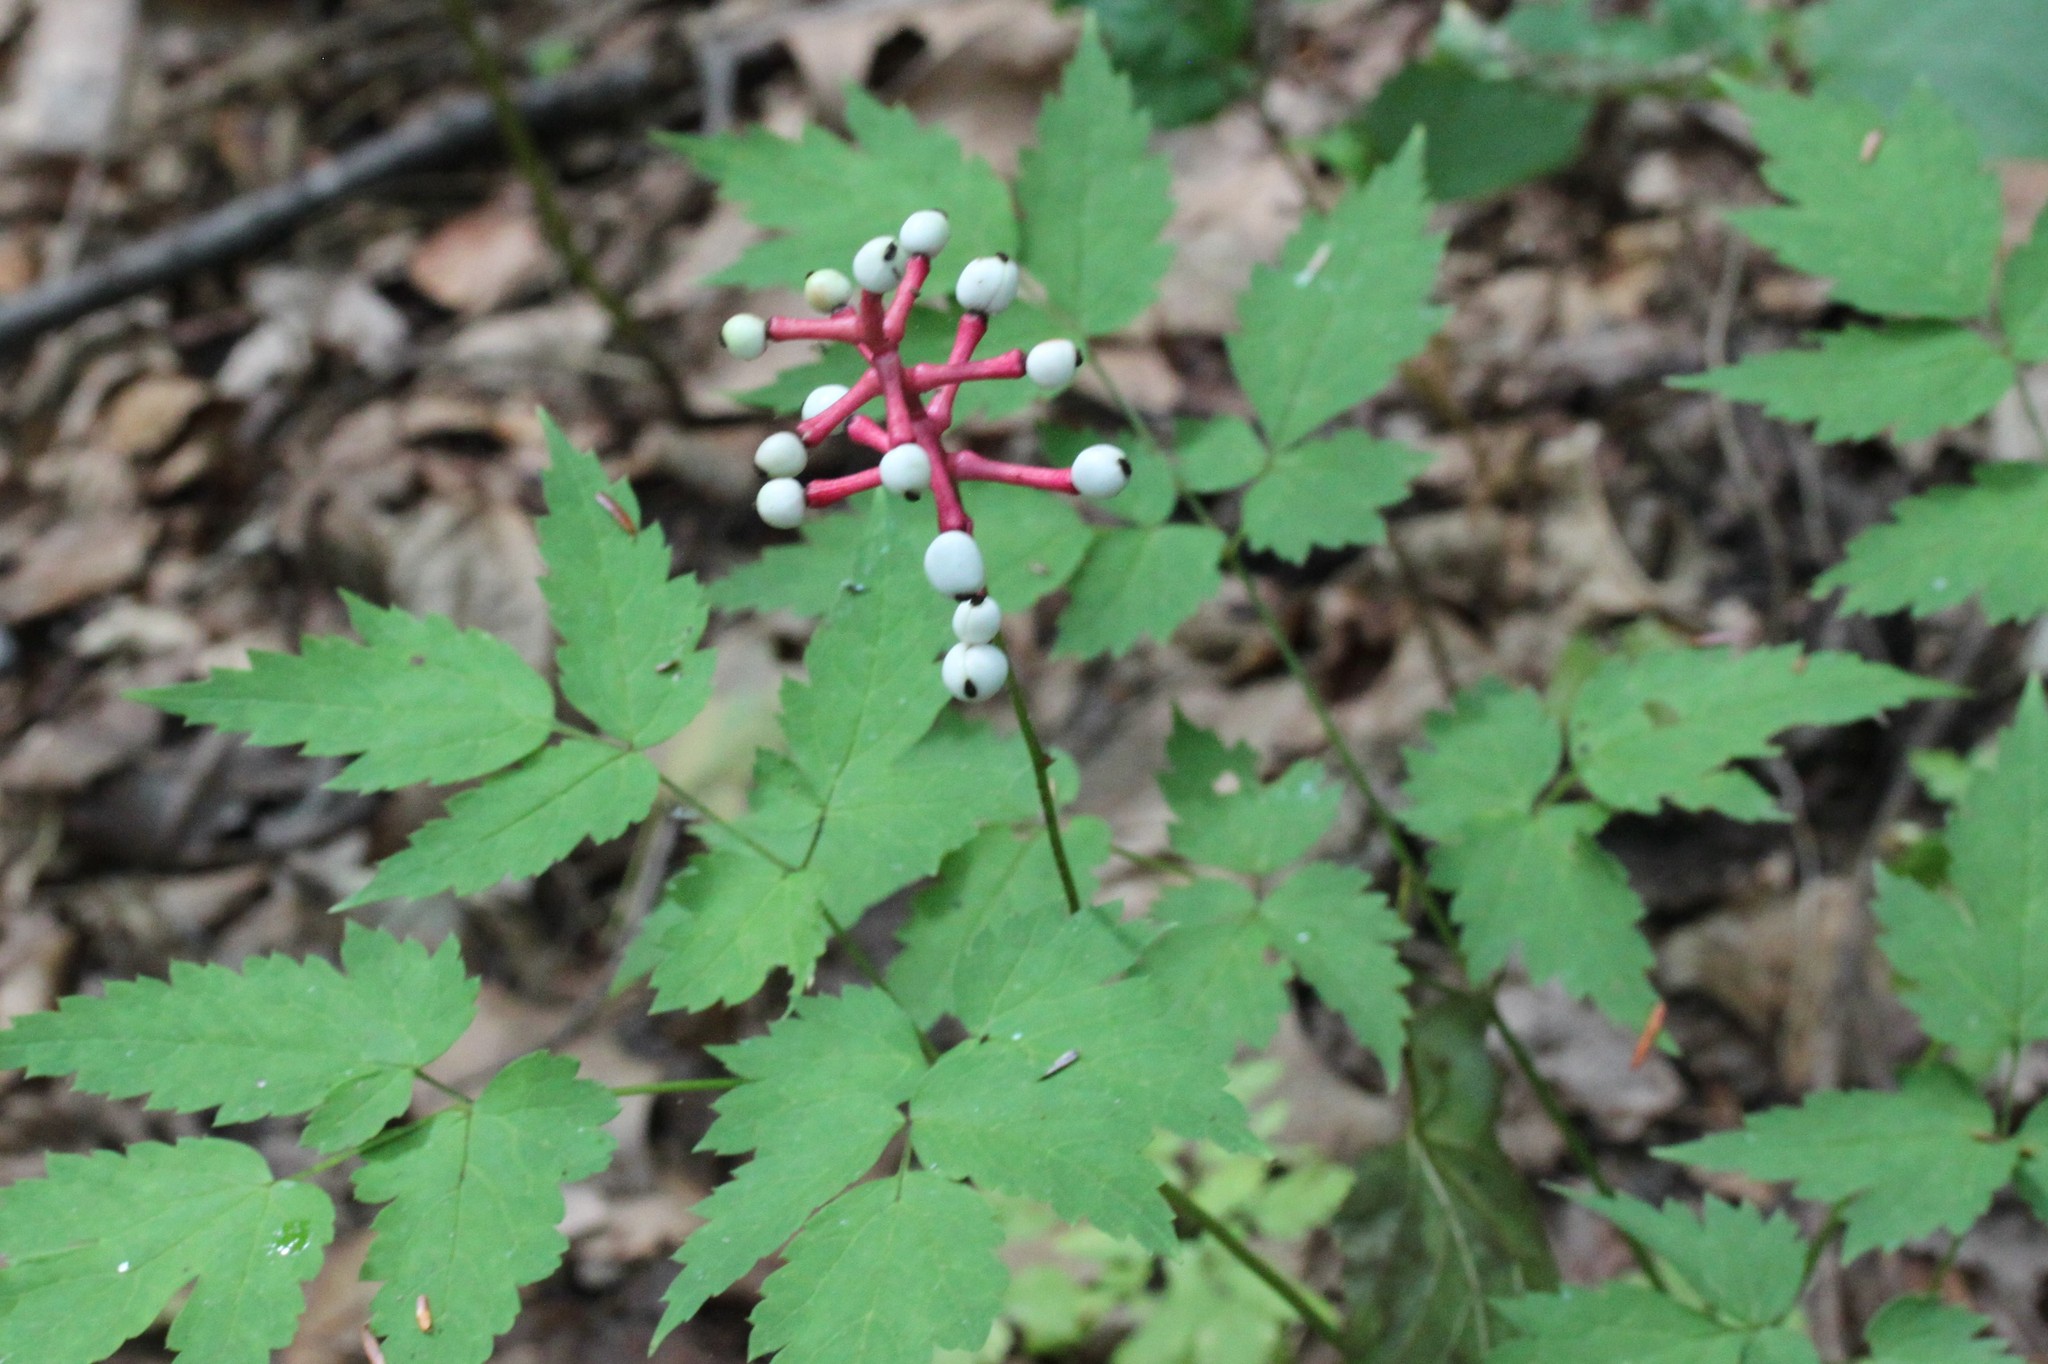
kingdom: Plantae
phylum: Tracheophyta
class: Magnoliopsida
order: Ranunculales
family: Ranunculaceae
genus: Actaea
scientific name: Actaea pachypoda
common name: Doll's-eyes
